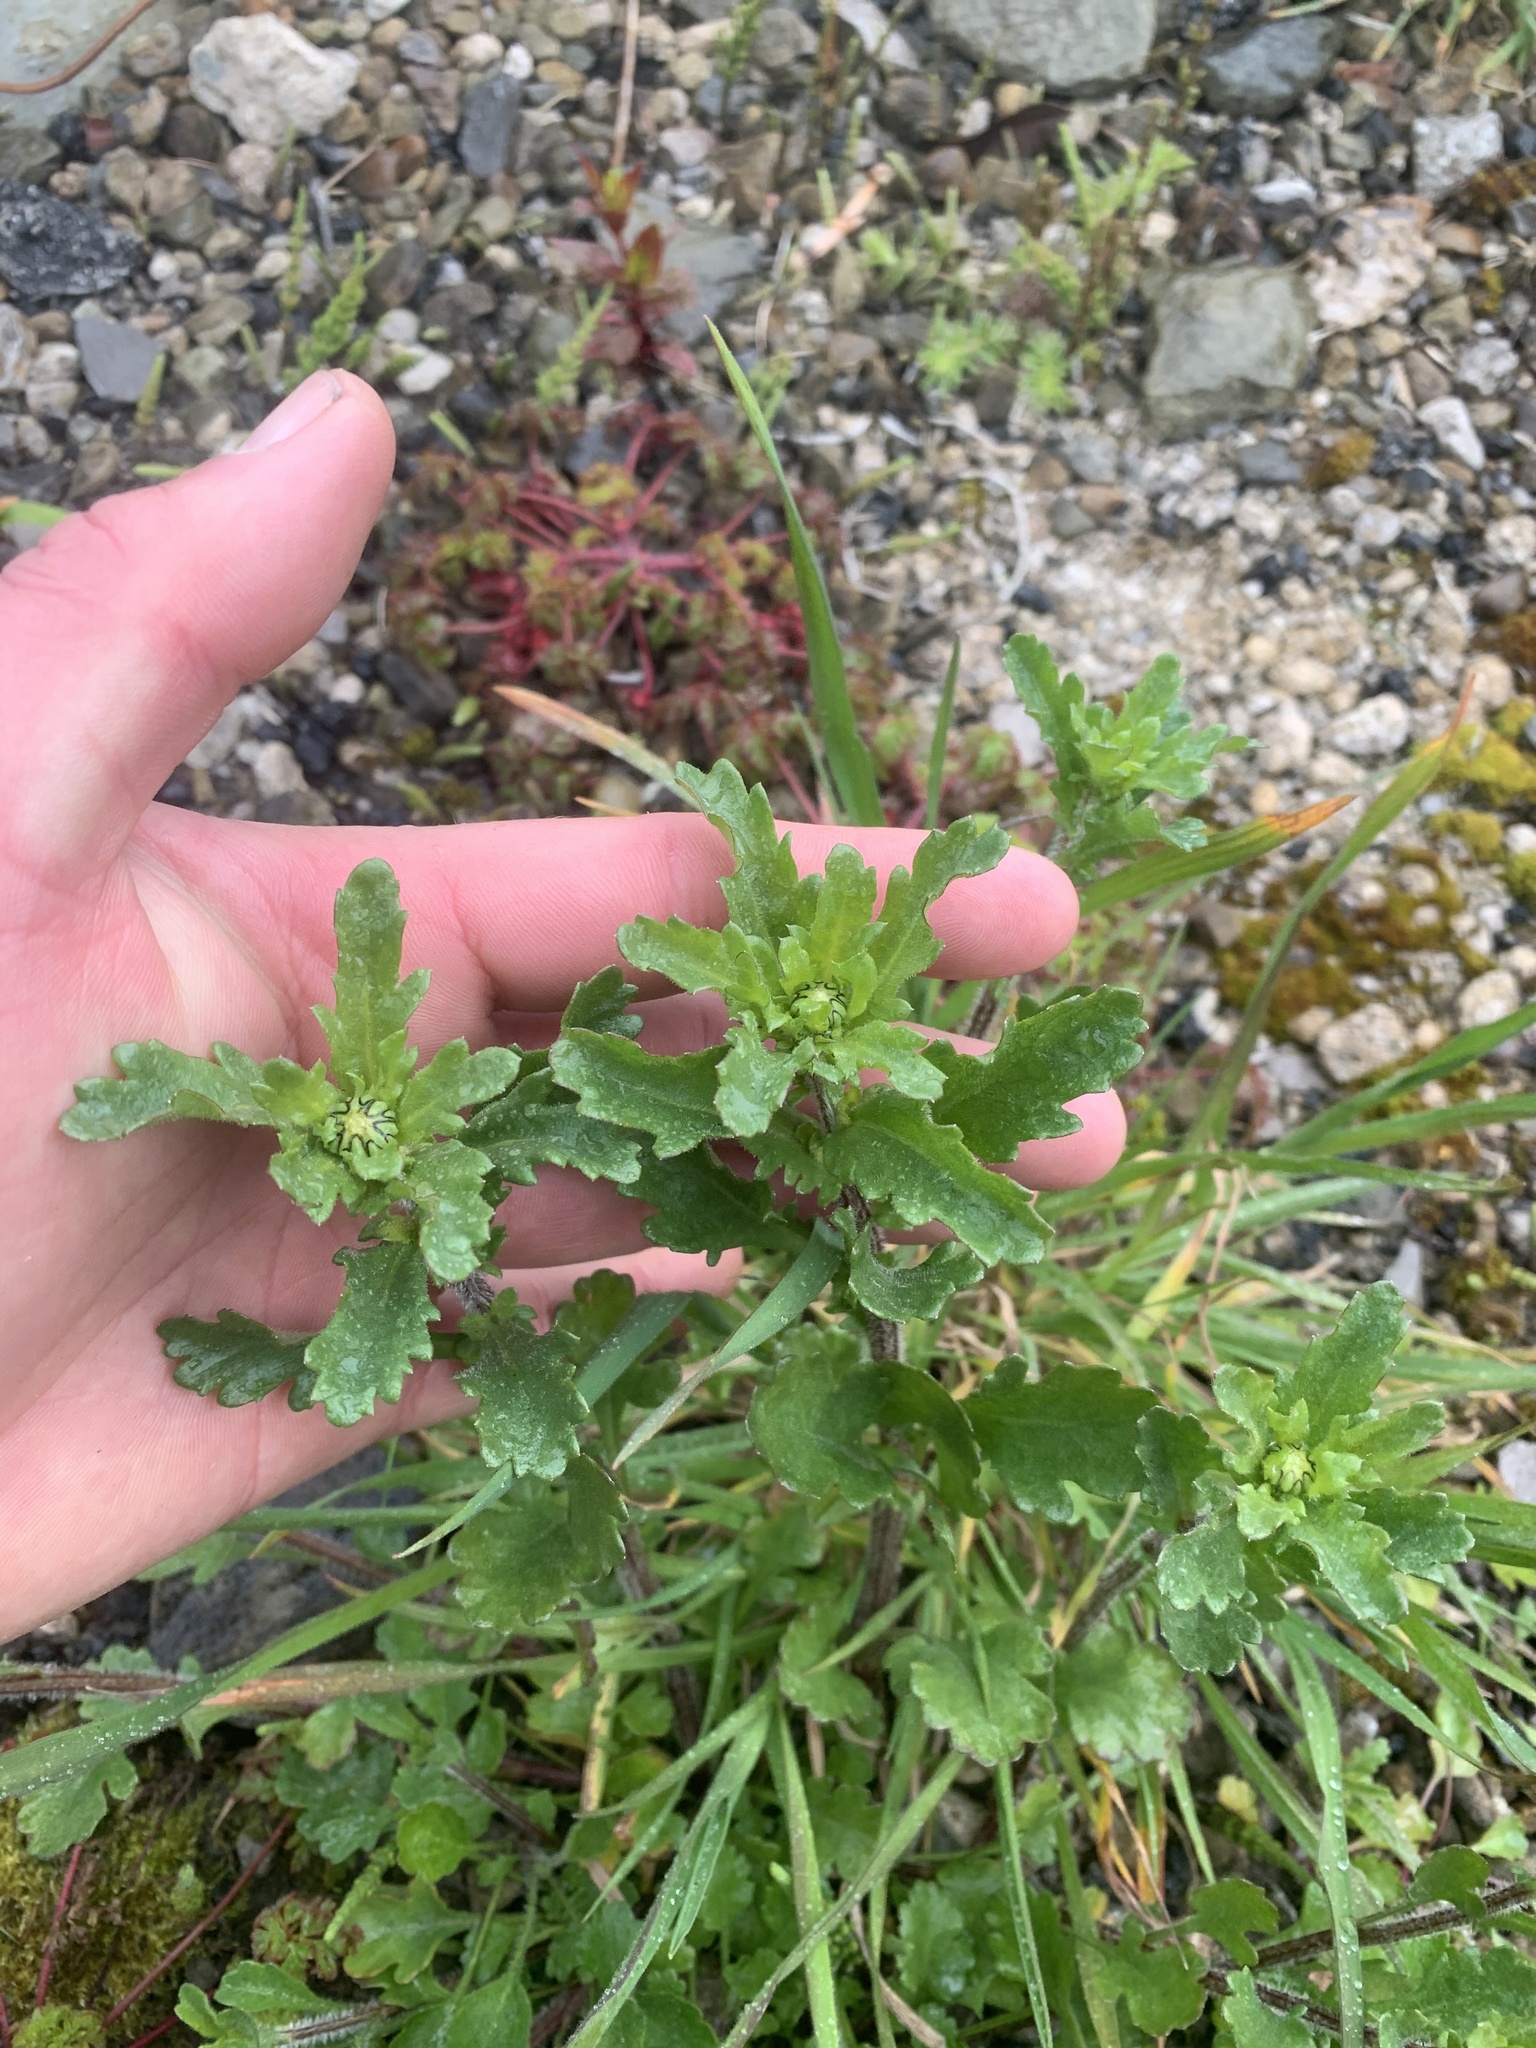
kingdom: Plantae
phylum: Tracheophyta
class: Magnoliopsida
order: Asterales
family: Asteraceae
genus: Leucanthemum
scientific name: Leucanthemum vulgare
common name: Oxeye daisy
